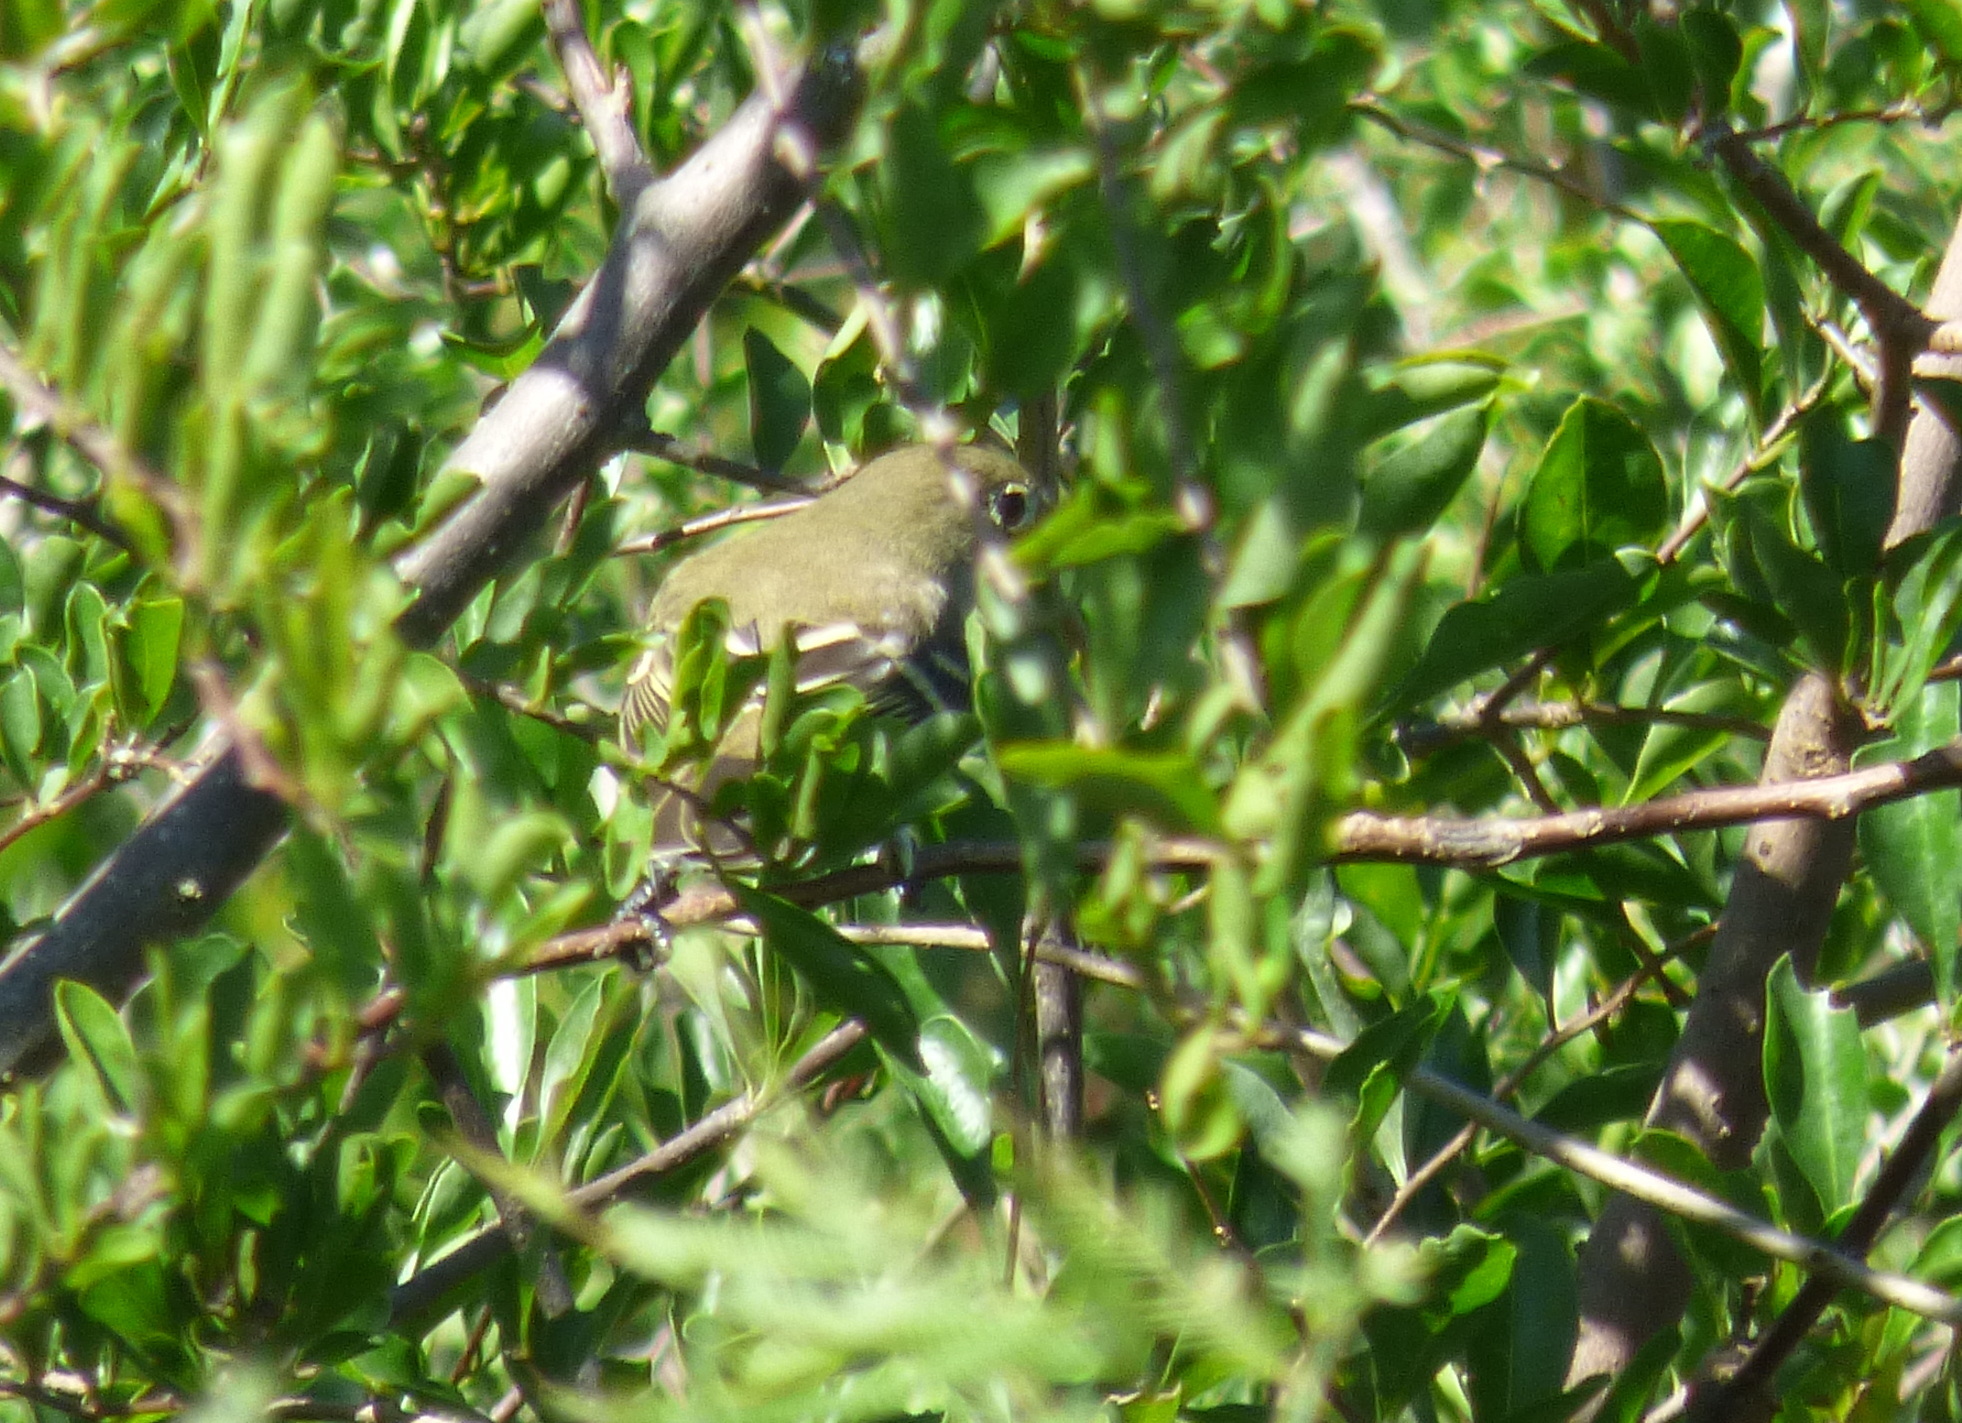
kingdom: Animalia
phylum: Chordata
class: Aves
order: Passeriformes
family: Tyrannidae
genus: Elaenia
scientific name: Elaenia albiceps
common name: White-crested elaenia
